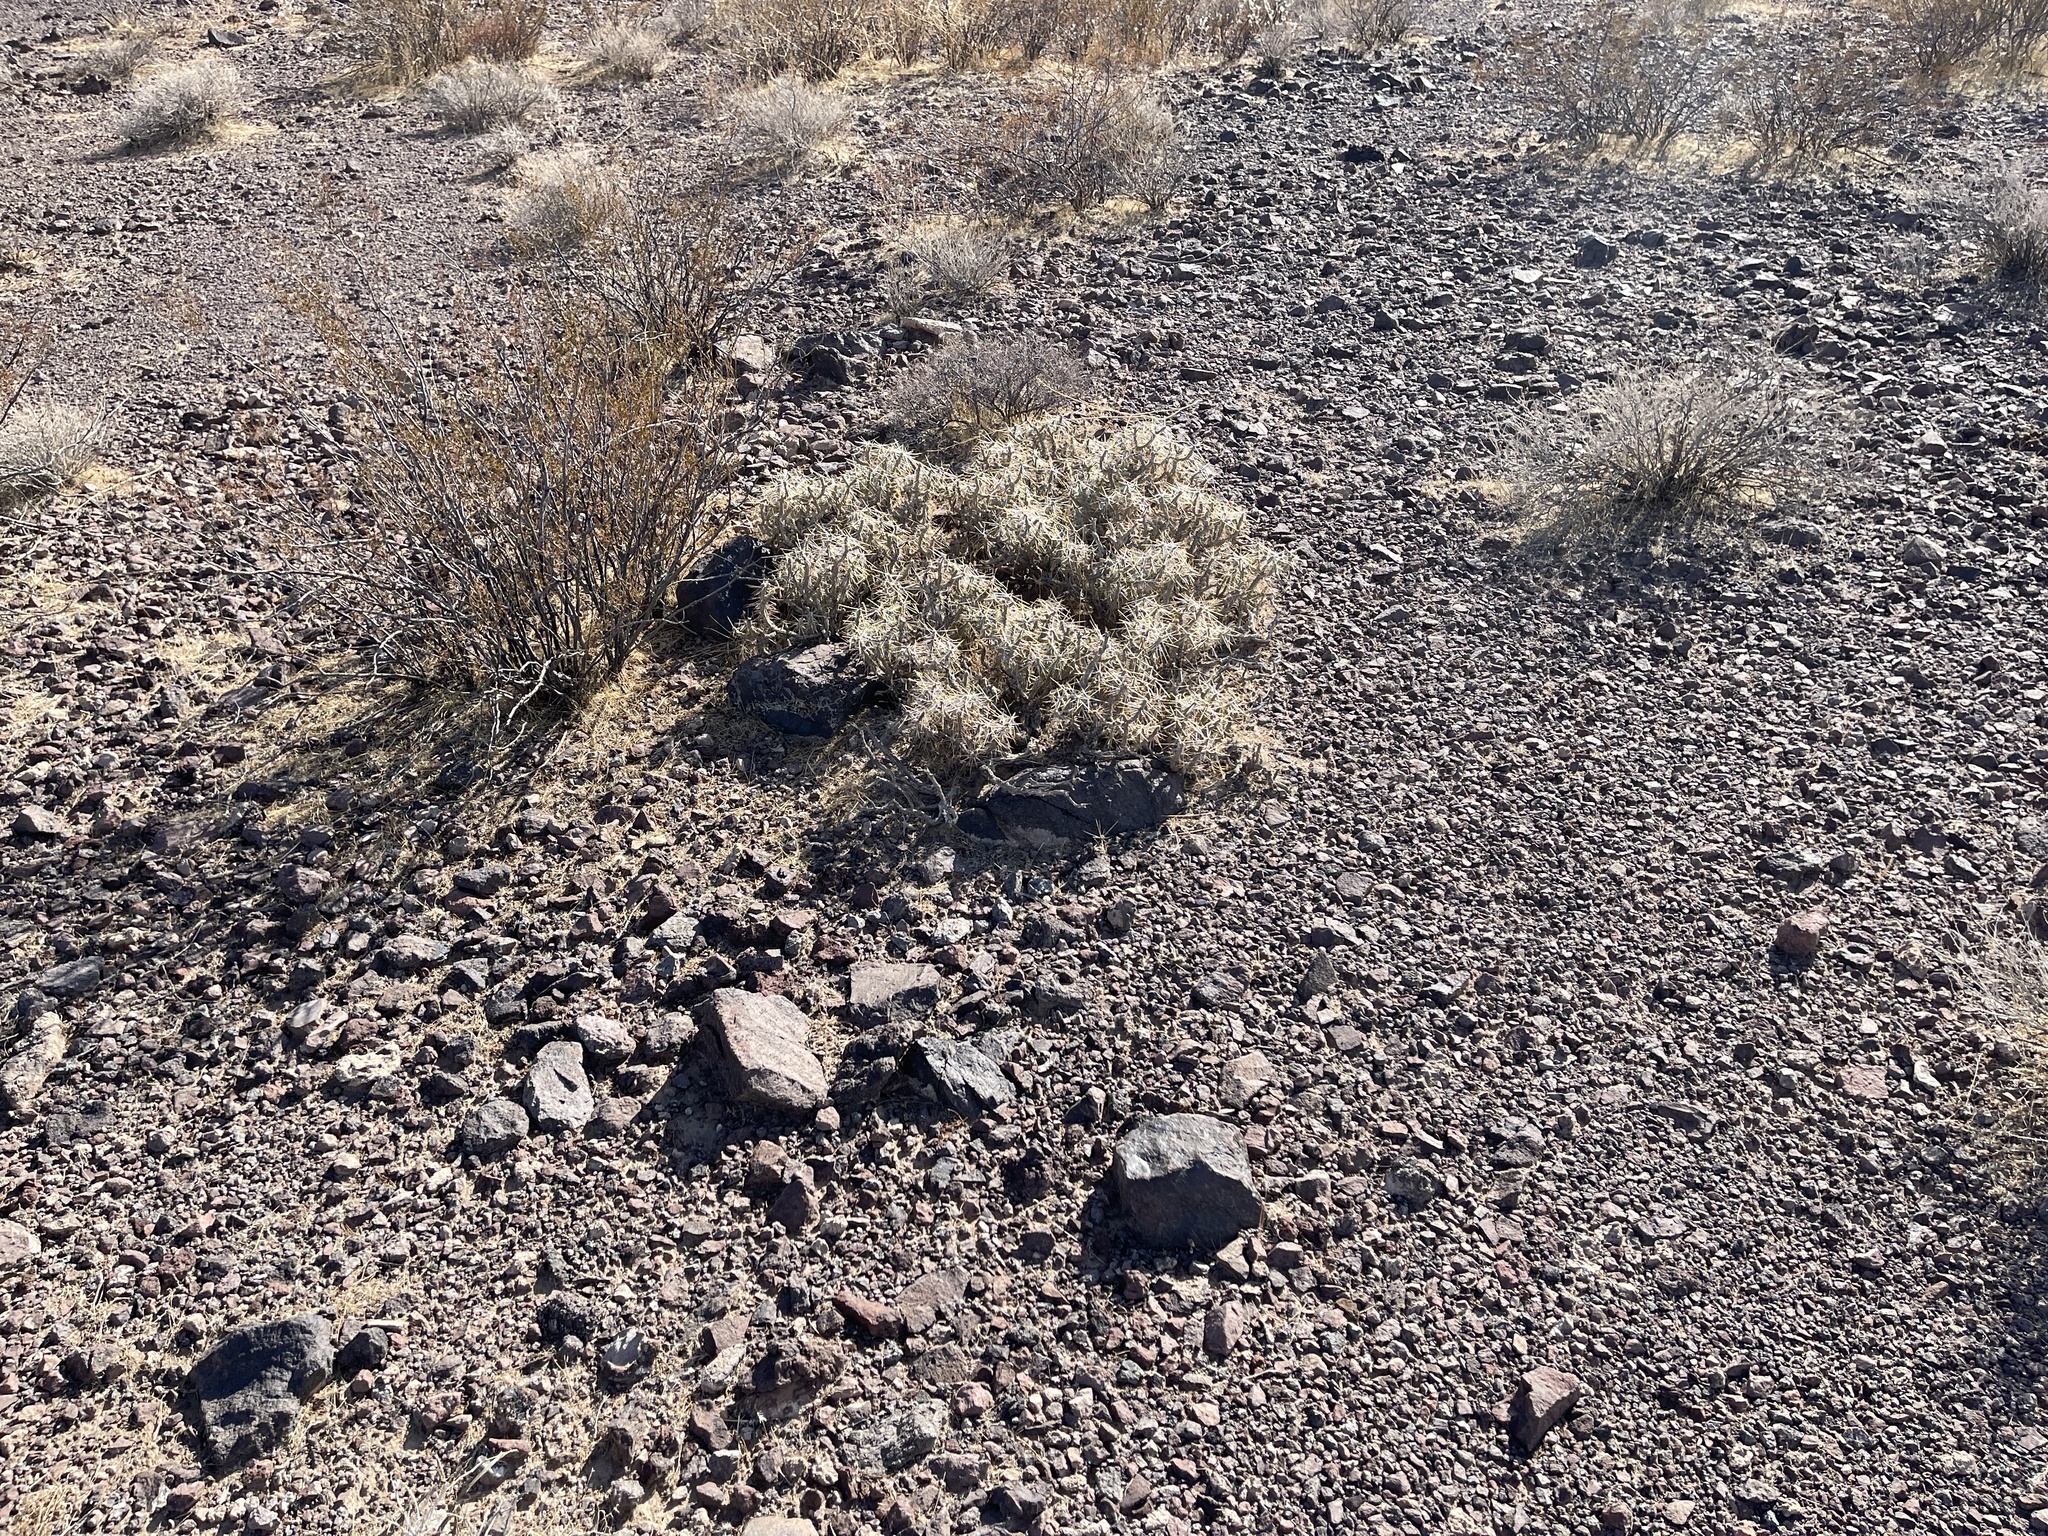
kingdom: Plantae
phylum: Tracheophyta
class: Magnoliopsida
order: Caryophyllales
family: Cactaceae
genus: Cylindropuntia
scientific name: Cylindropuntia ramosissima
